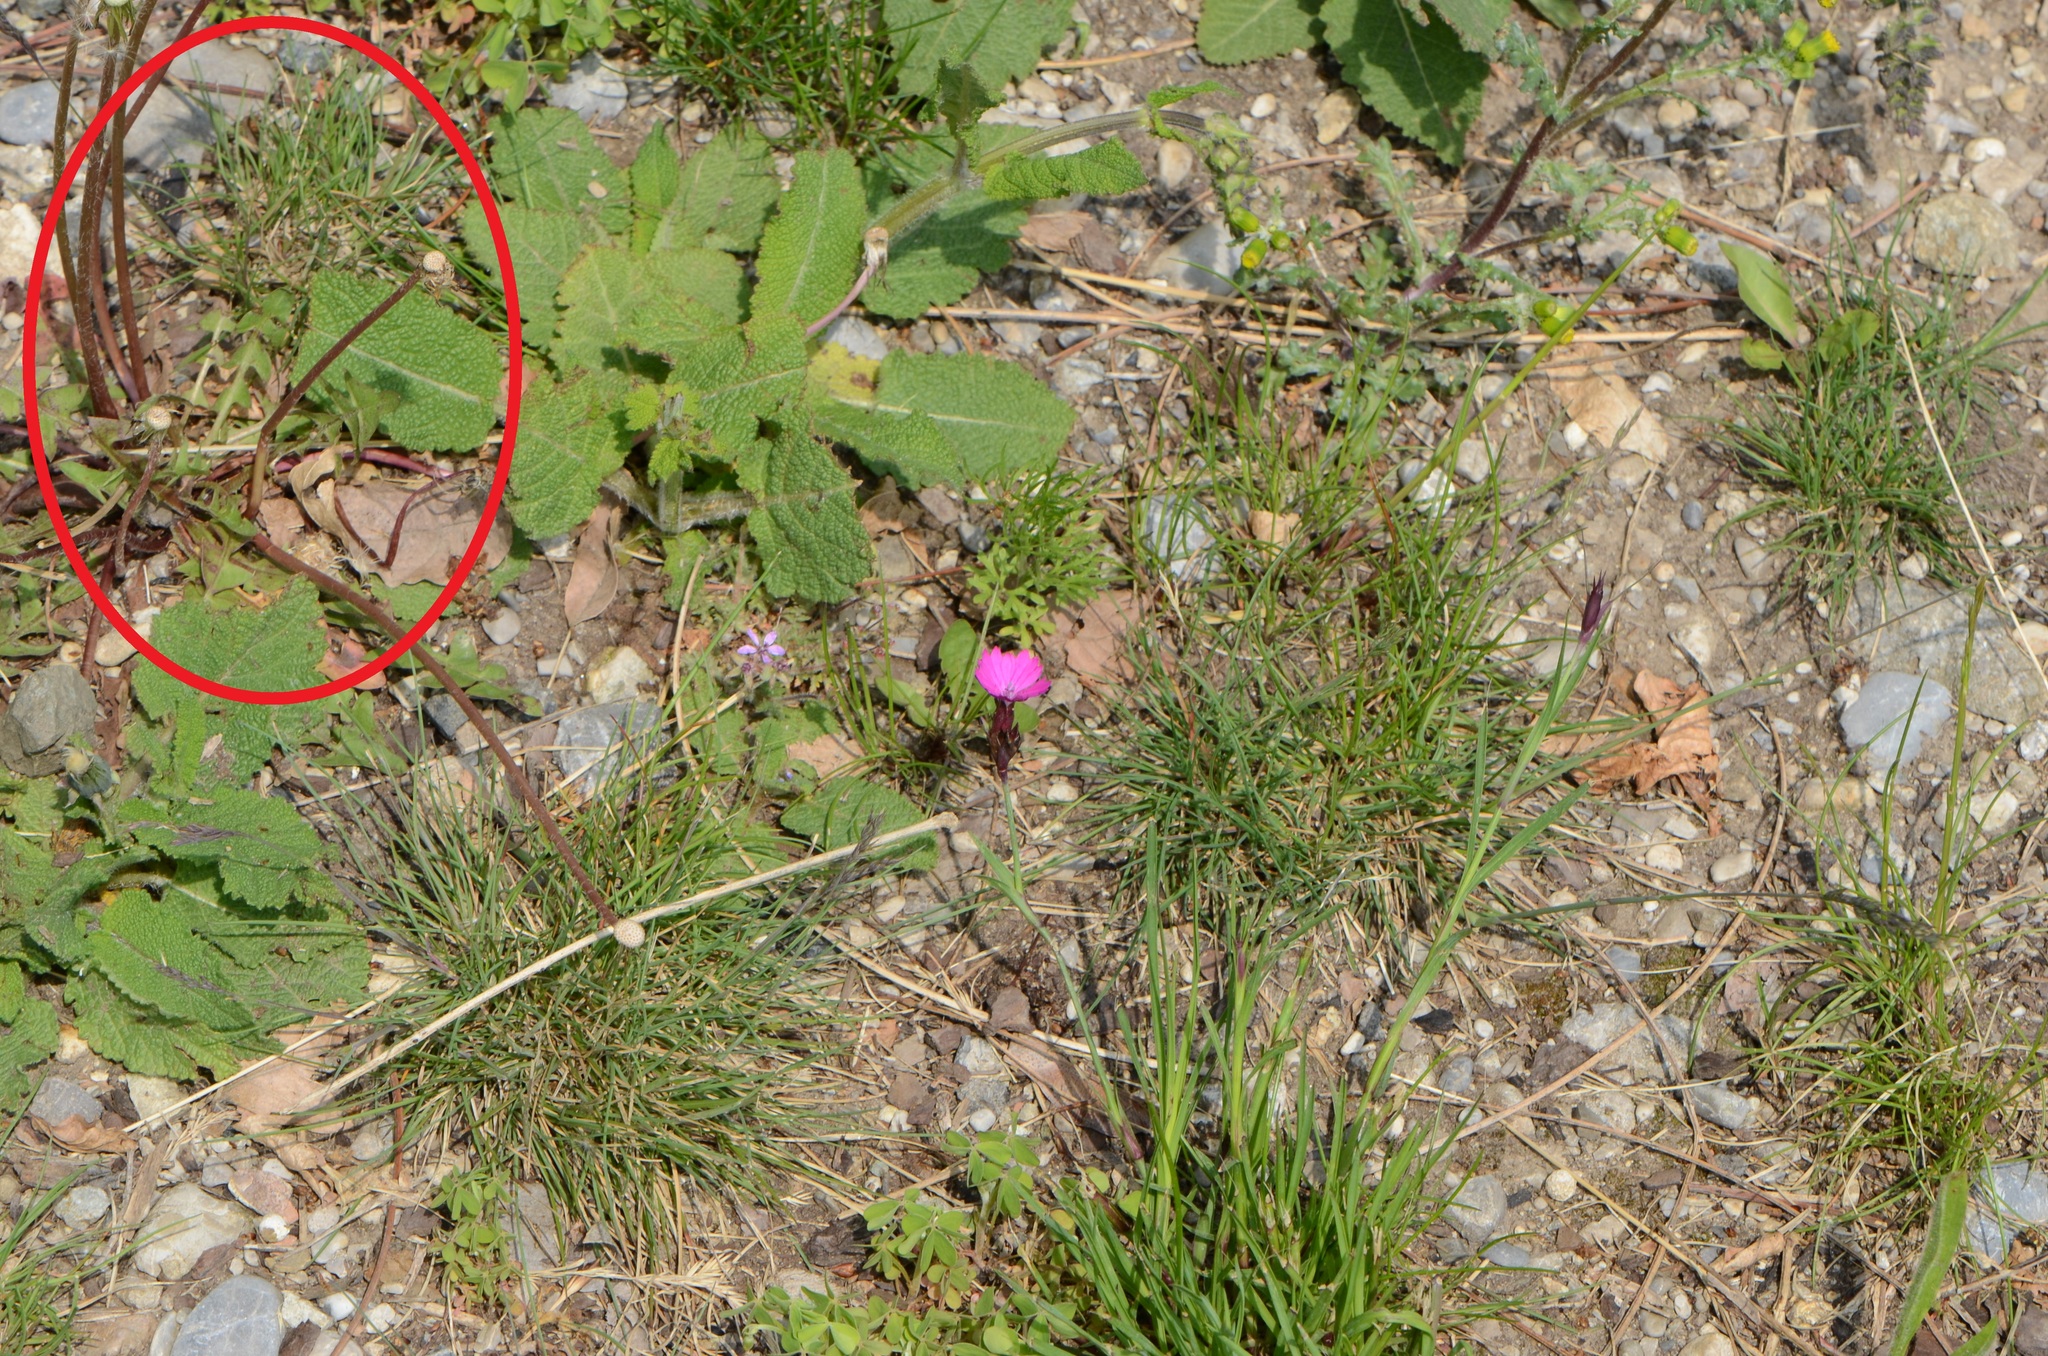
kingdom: Plantae
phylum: Tracheophyta
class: Magnoliopsida
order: Asterales
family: Asteraceae
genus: Taraxacum
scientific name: Taraxacum officinale
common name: Common dandelion
